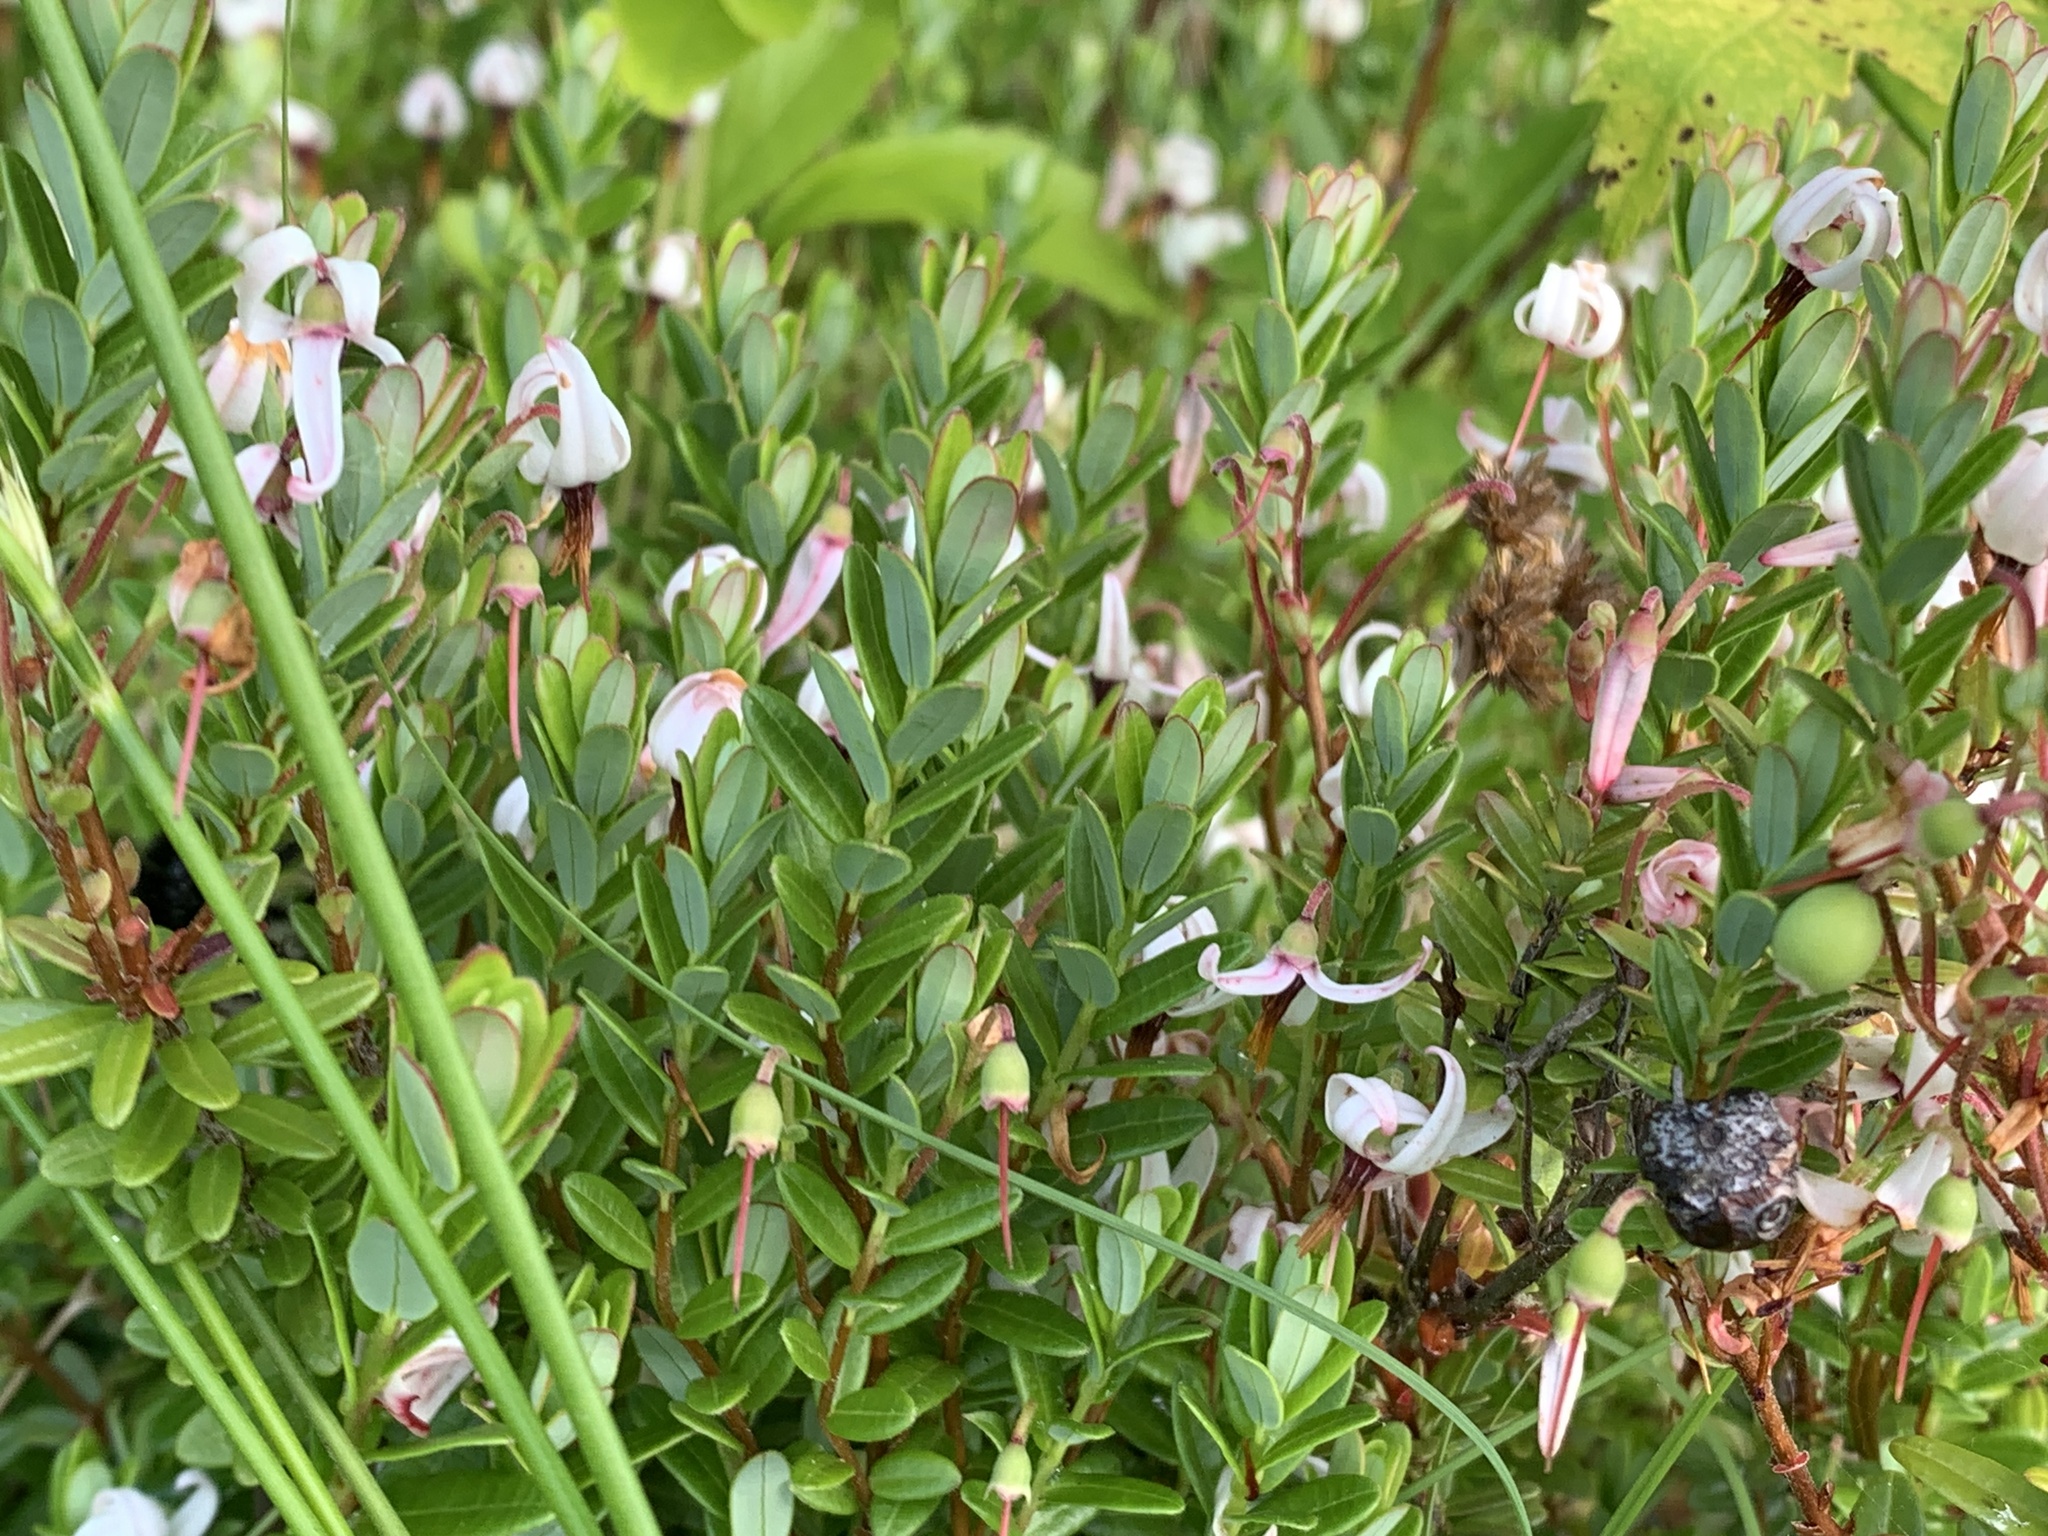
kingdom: Plantae
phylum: Tracheophyta
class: Magnoliopsida
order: Ericales
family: Ericaceae
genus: Vaccinium
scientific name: Vaccinium macrocarpon
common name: American cranberry
